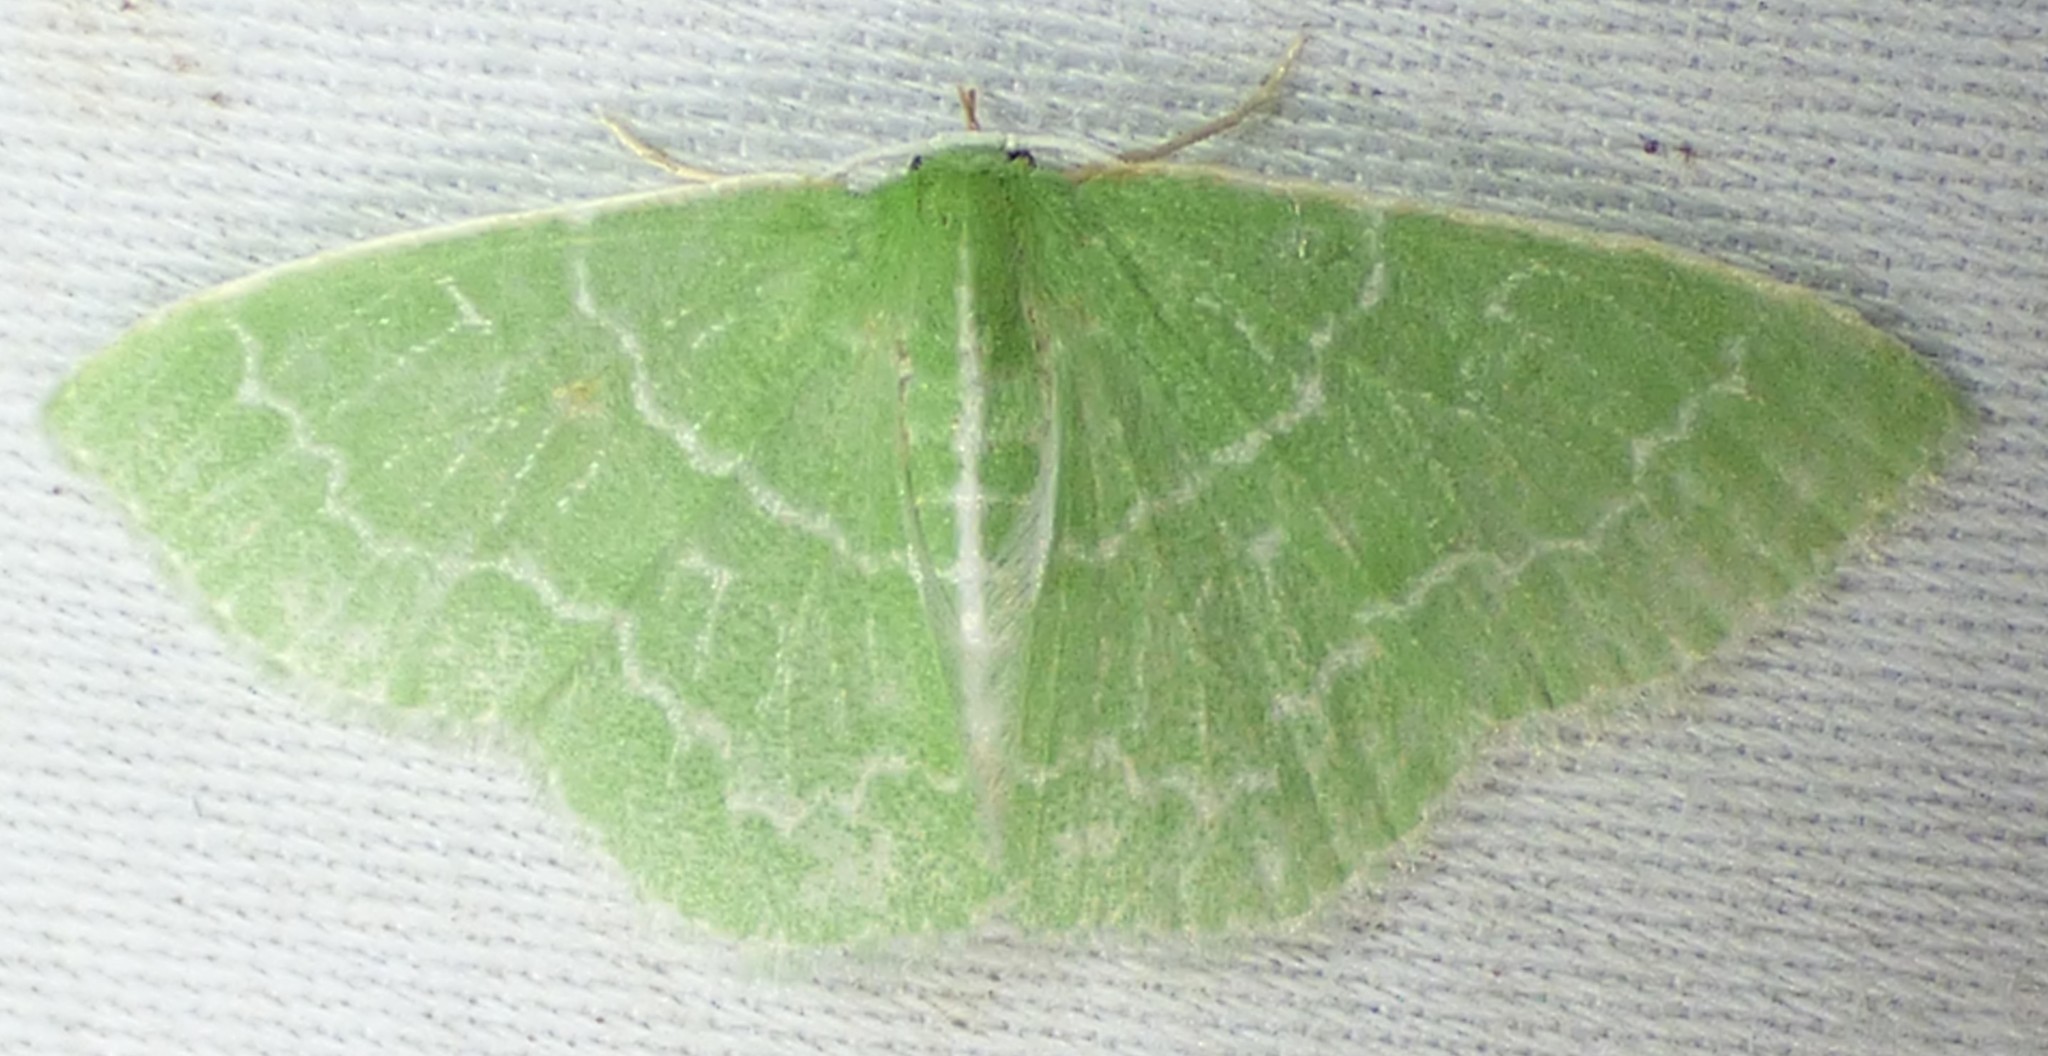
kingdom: Animalia
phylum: Arthropoda
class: Insecta
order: Lepidoptera
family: Geometridae
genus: Synchlora
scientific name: Synchlora aerata
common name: Wavy-lined emerald
